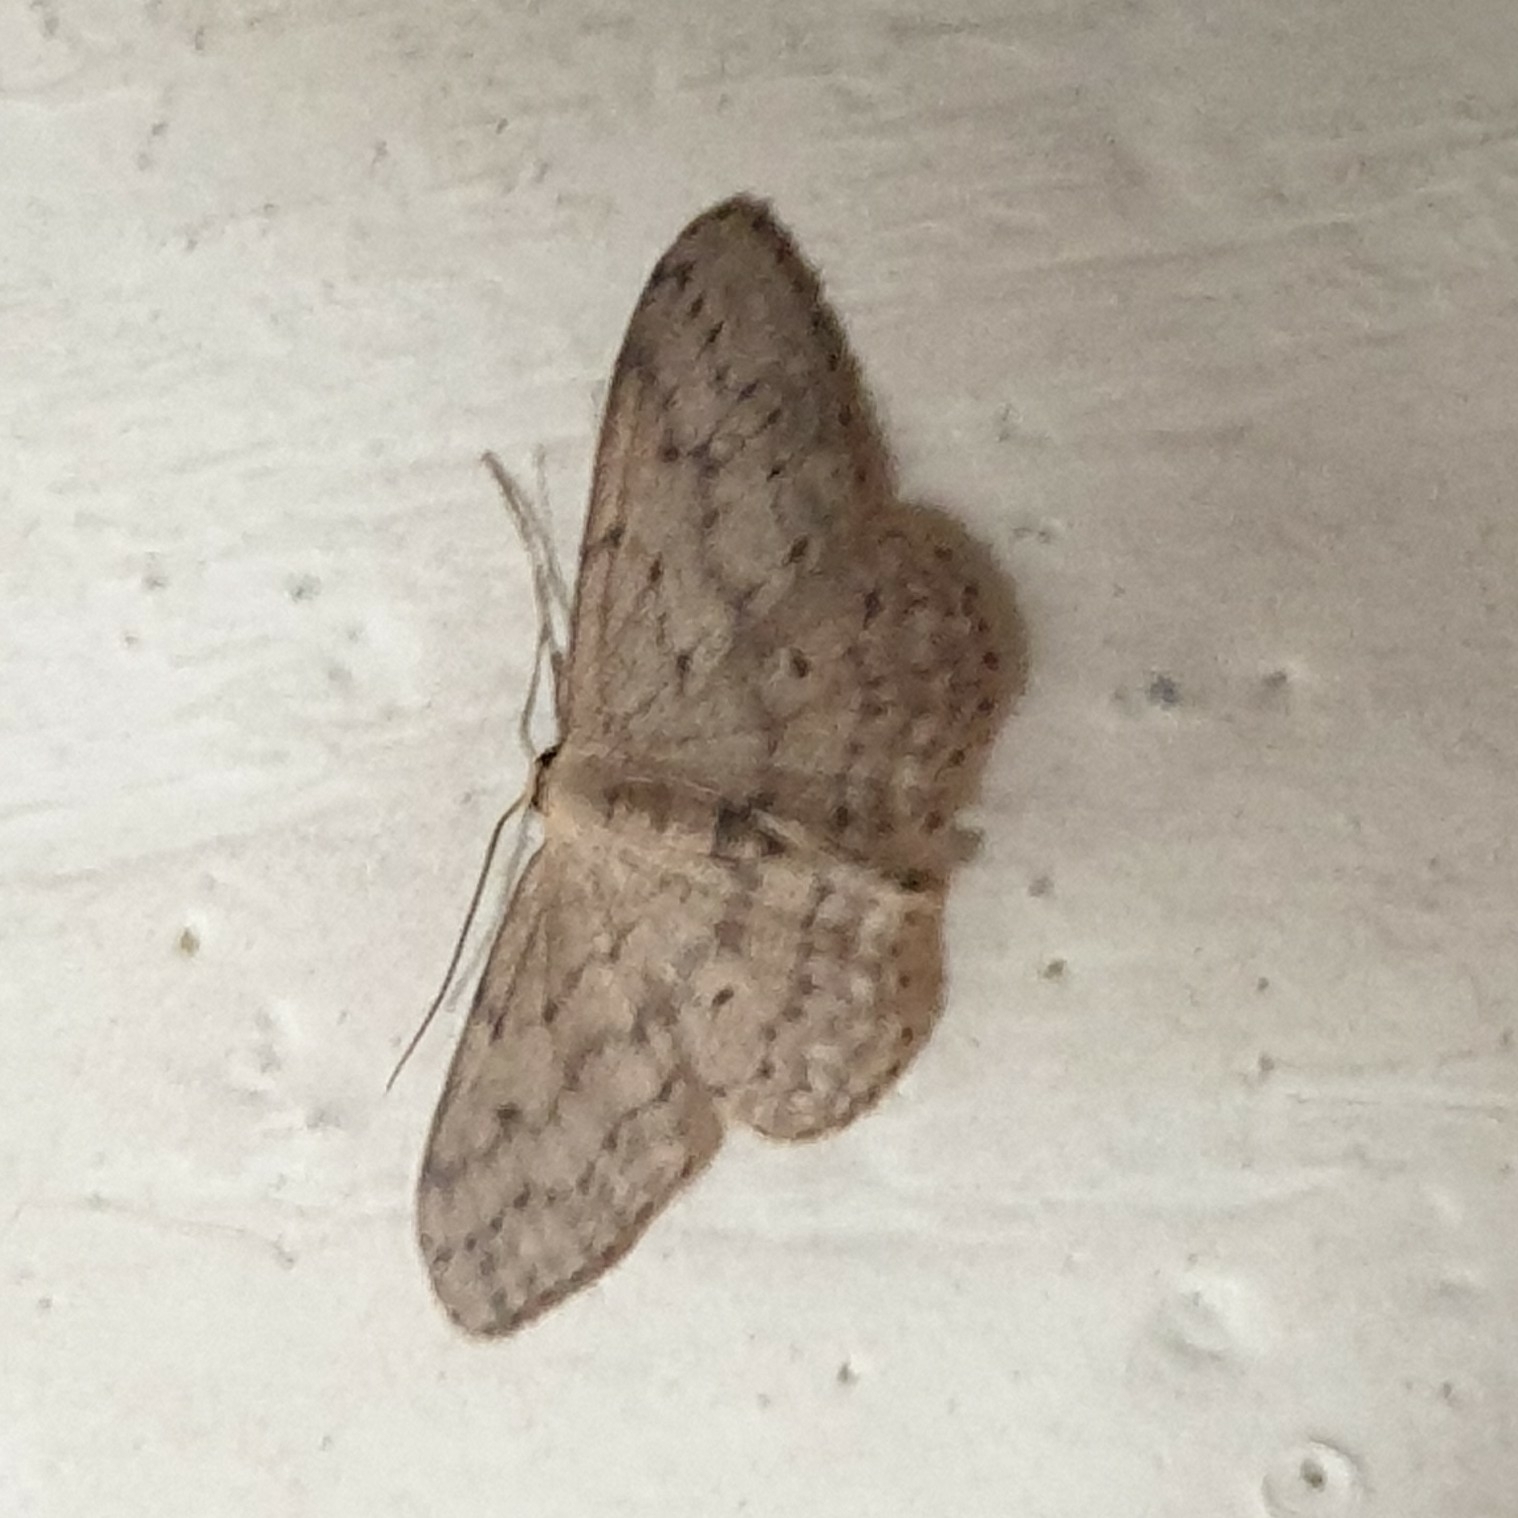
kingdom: Animalia
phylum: Arthropoda
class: Insecta
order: Lepidoptera
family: Geometridae
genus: Idaea
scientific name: Idaea seriata
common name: Small dusty wave
